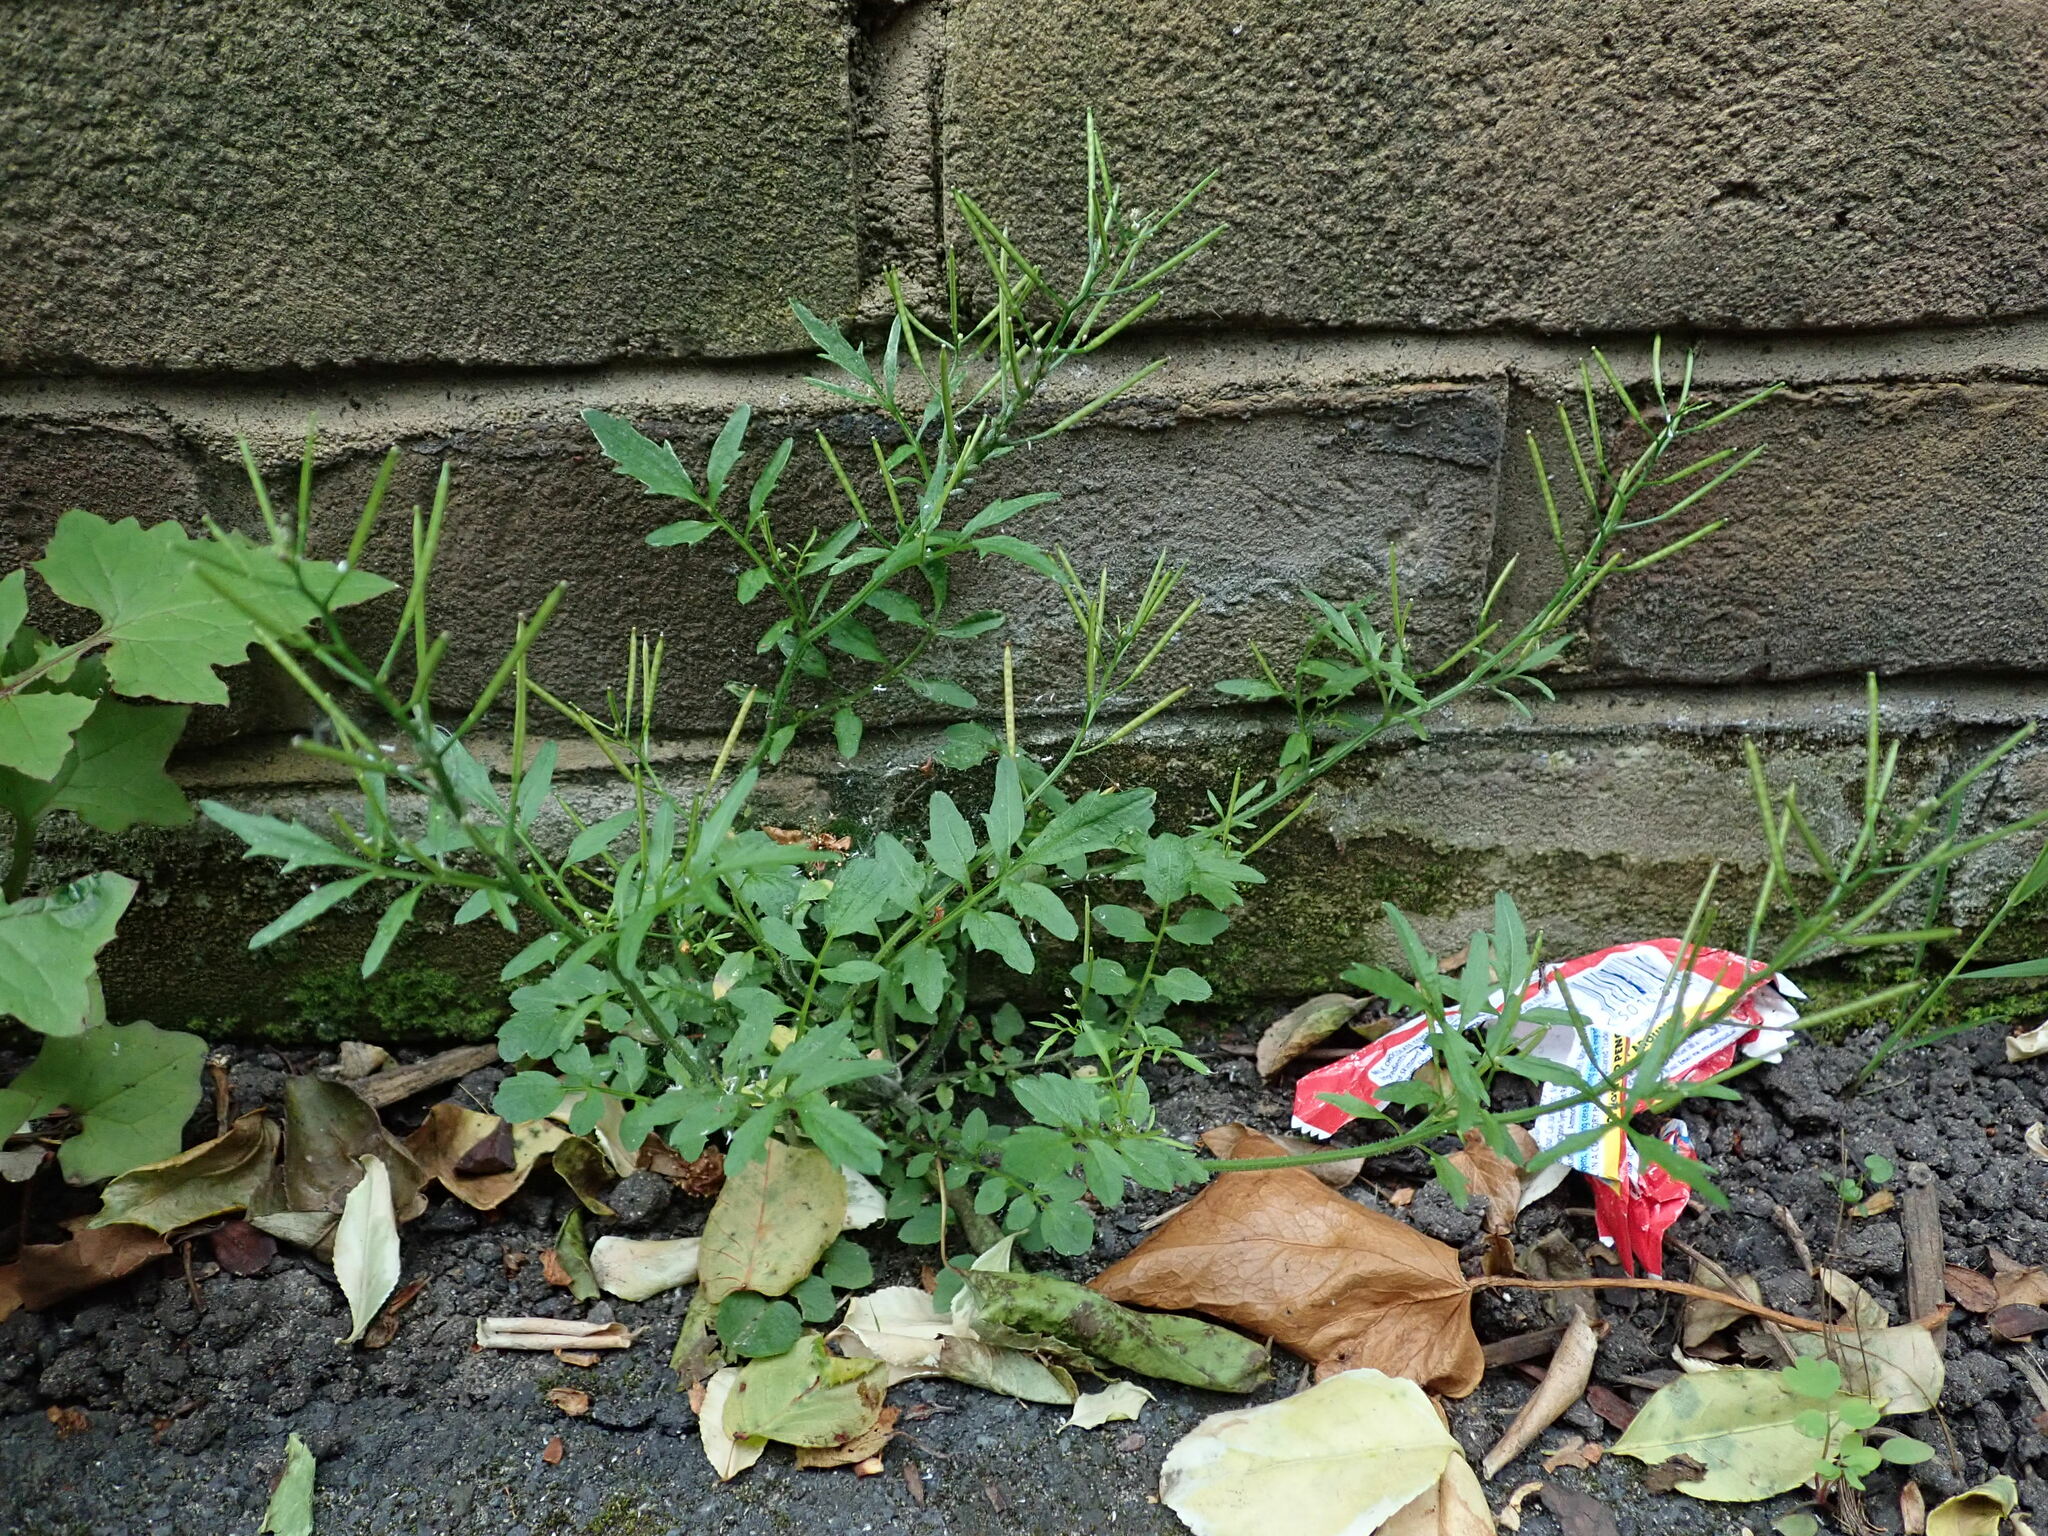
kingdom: Plantae
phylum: Tracheophyta
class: Magnoliopsida
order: Brassicales
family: Brassicaceae
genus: Cardamine
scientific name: Cardamine flexuosa
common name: Woodland bittercress
